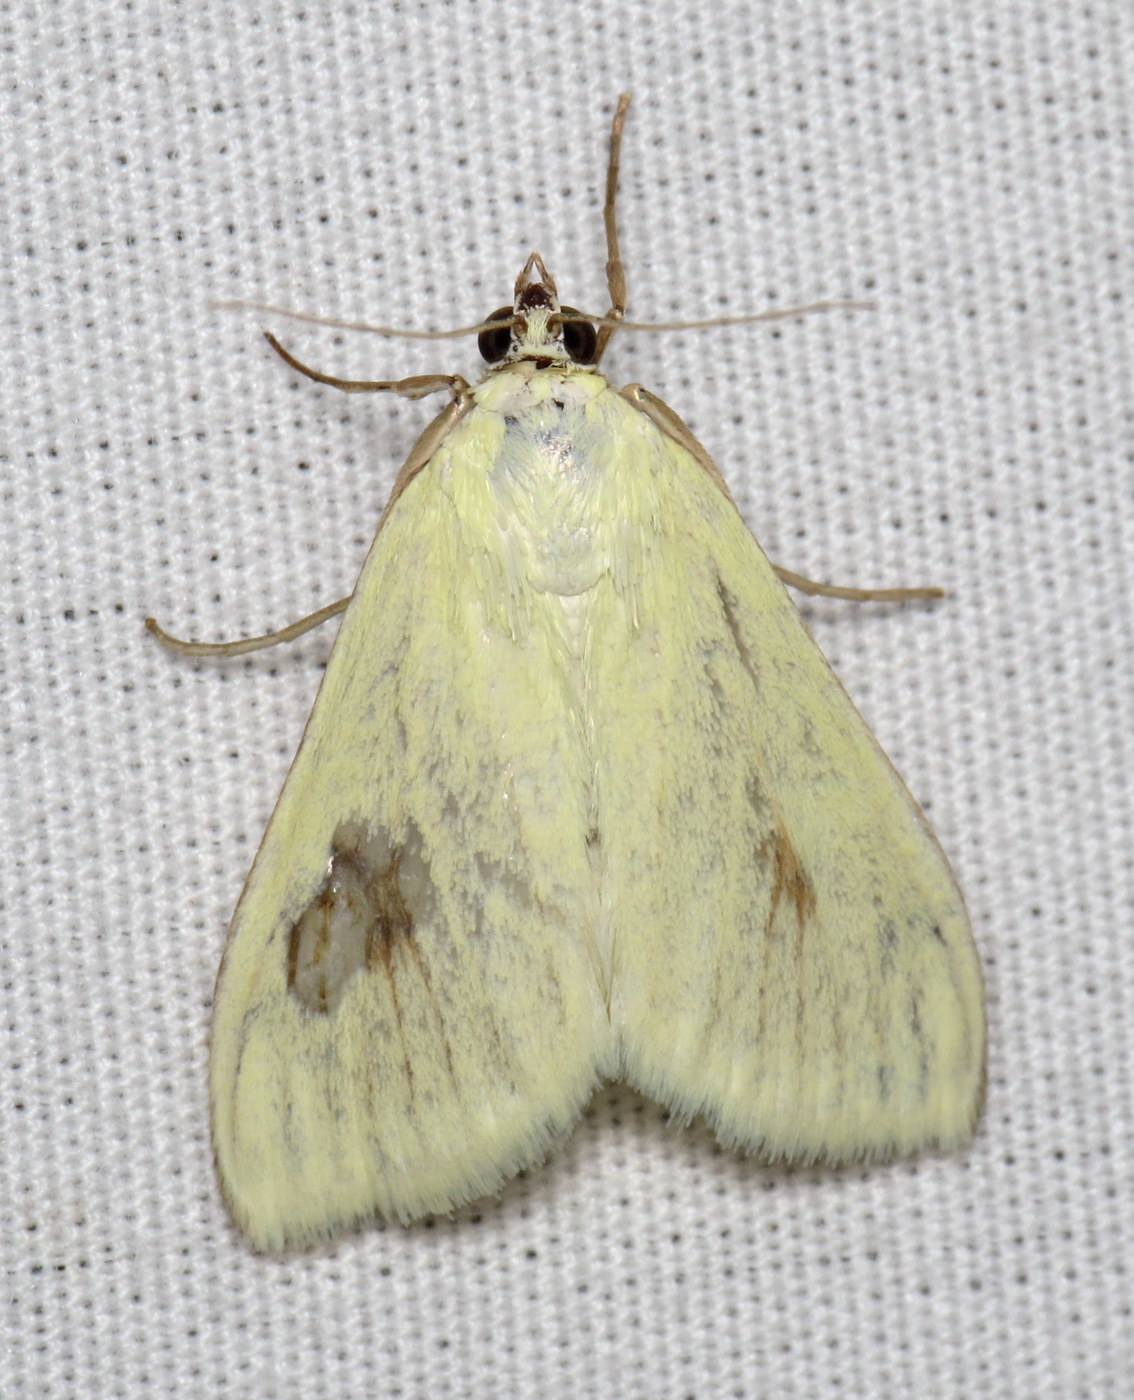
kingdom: Animalia
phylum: Arthropoda
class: Insecta
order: Lepidoptera
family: Crambidae
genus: Sitochroa
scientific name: Sitochroa palealis
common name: Greenish-yellow sitochroa moth
